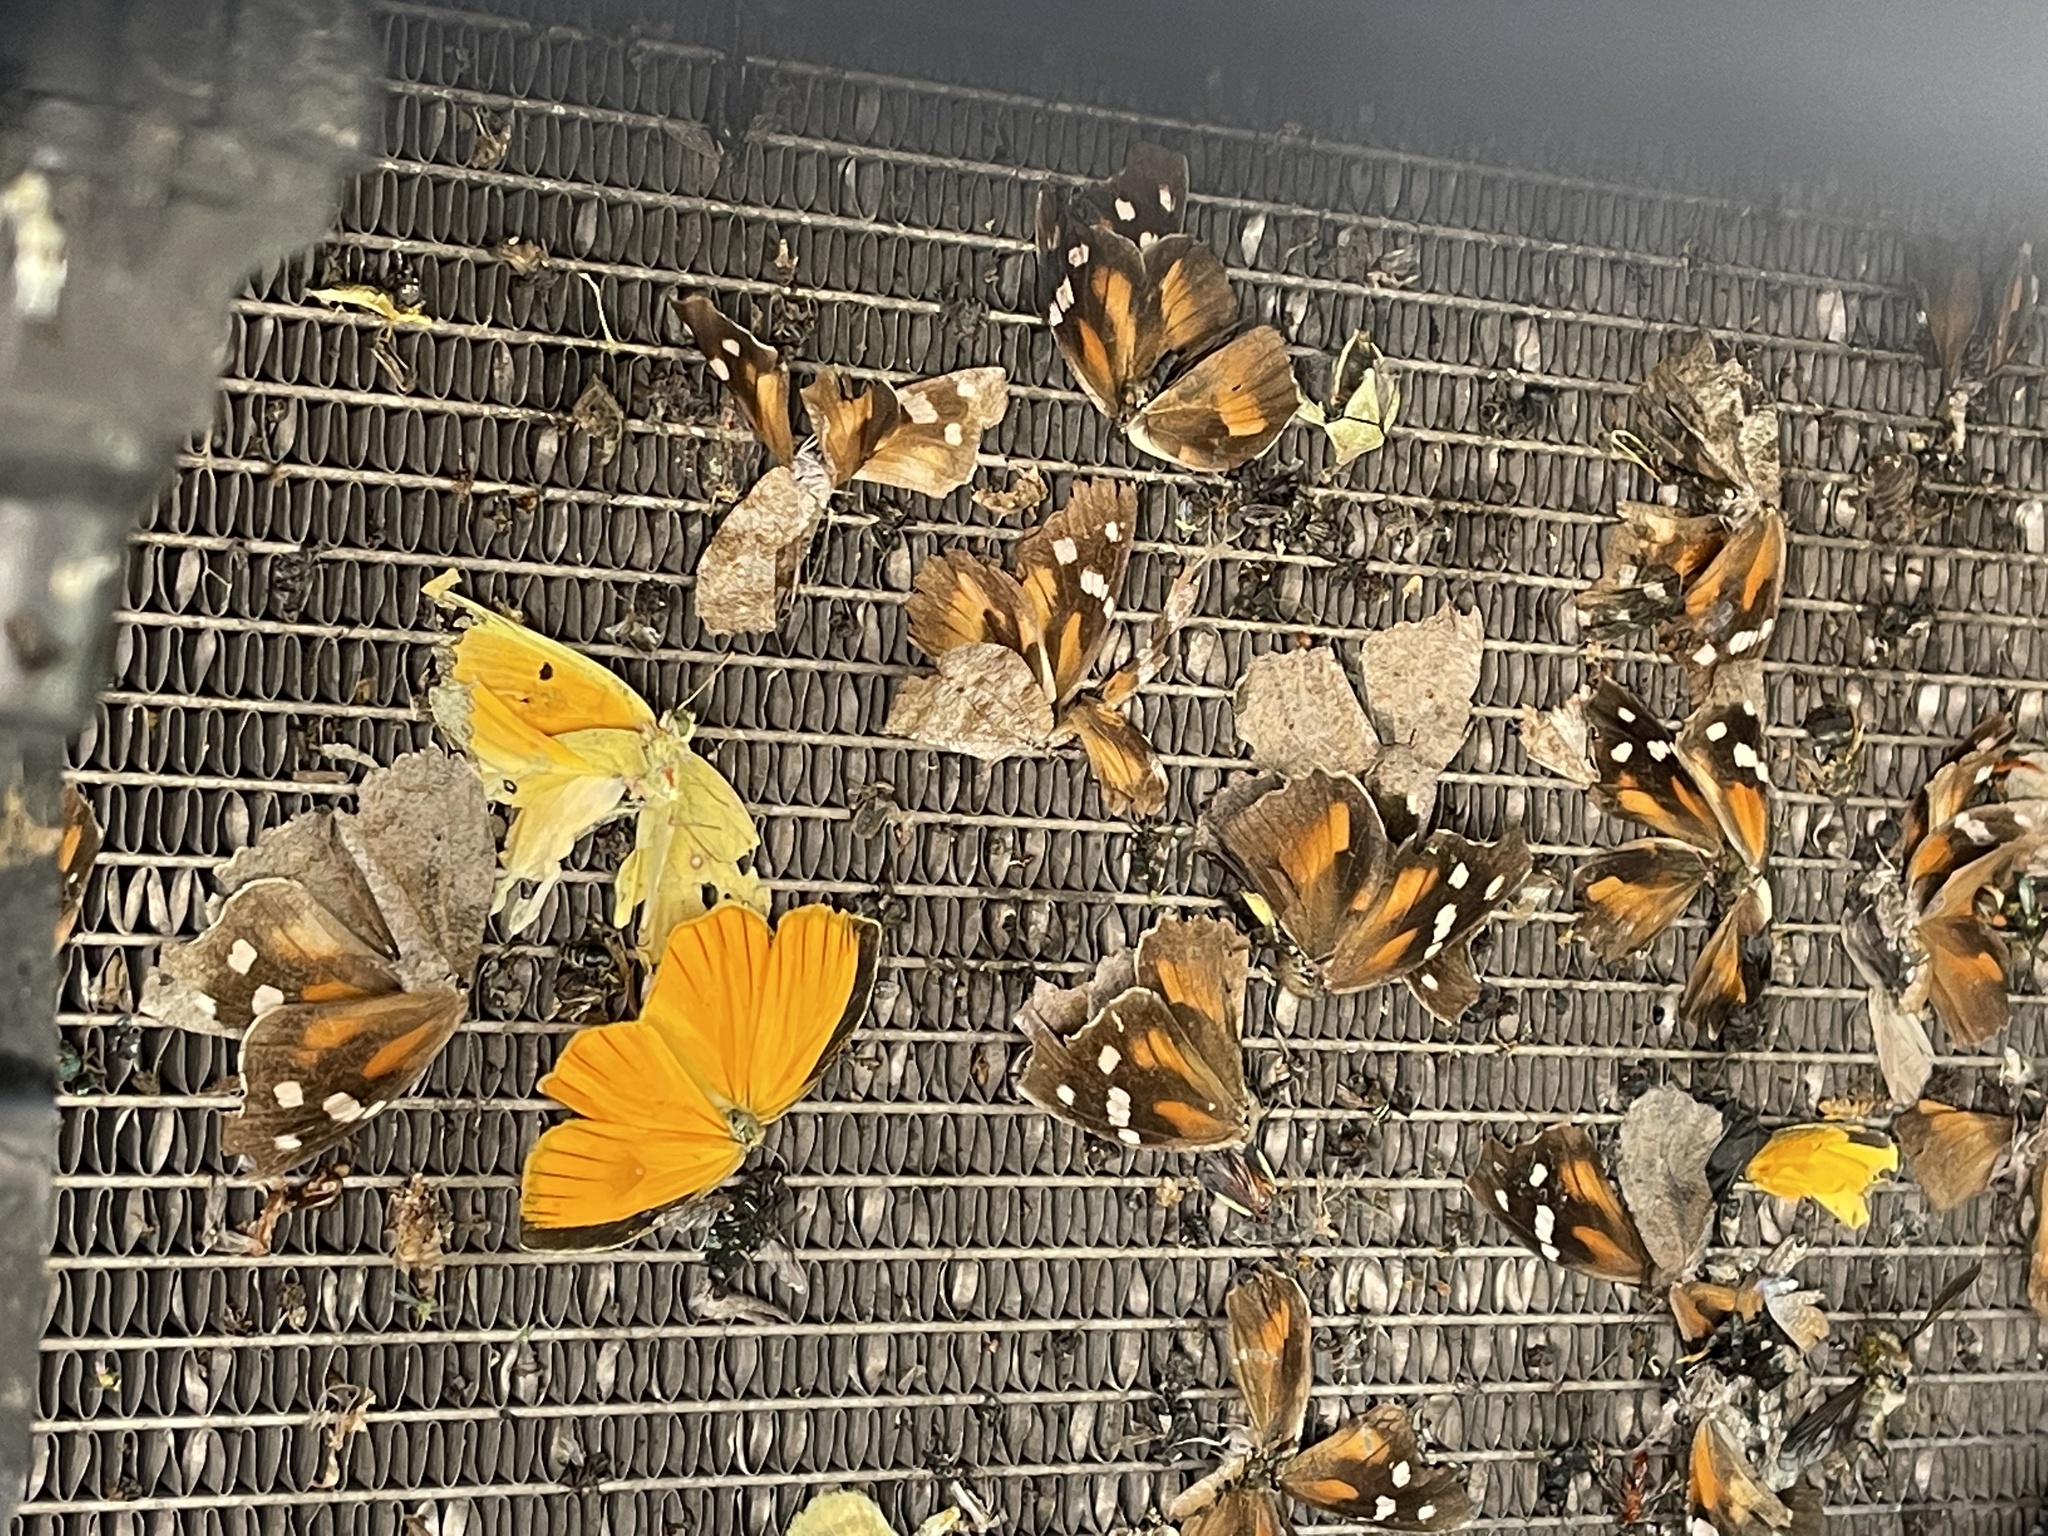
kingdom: Animalia
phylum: Arthropoda
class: Insecta
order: Lepidoptera
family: Nymphalidae
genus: Libytheana
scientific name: Libytheana carinenta
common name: American snout
